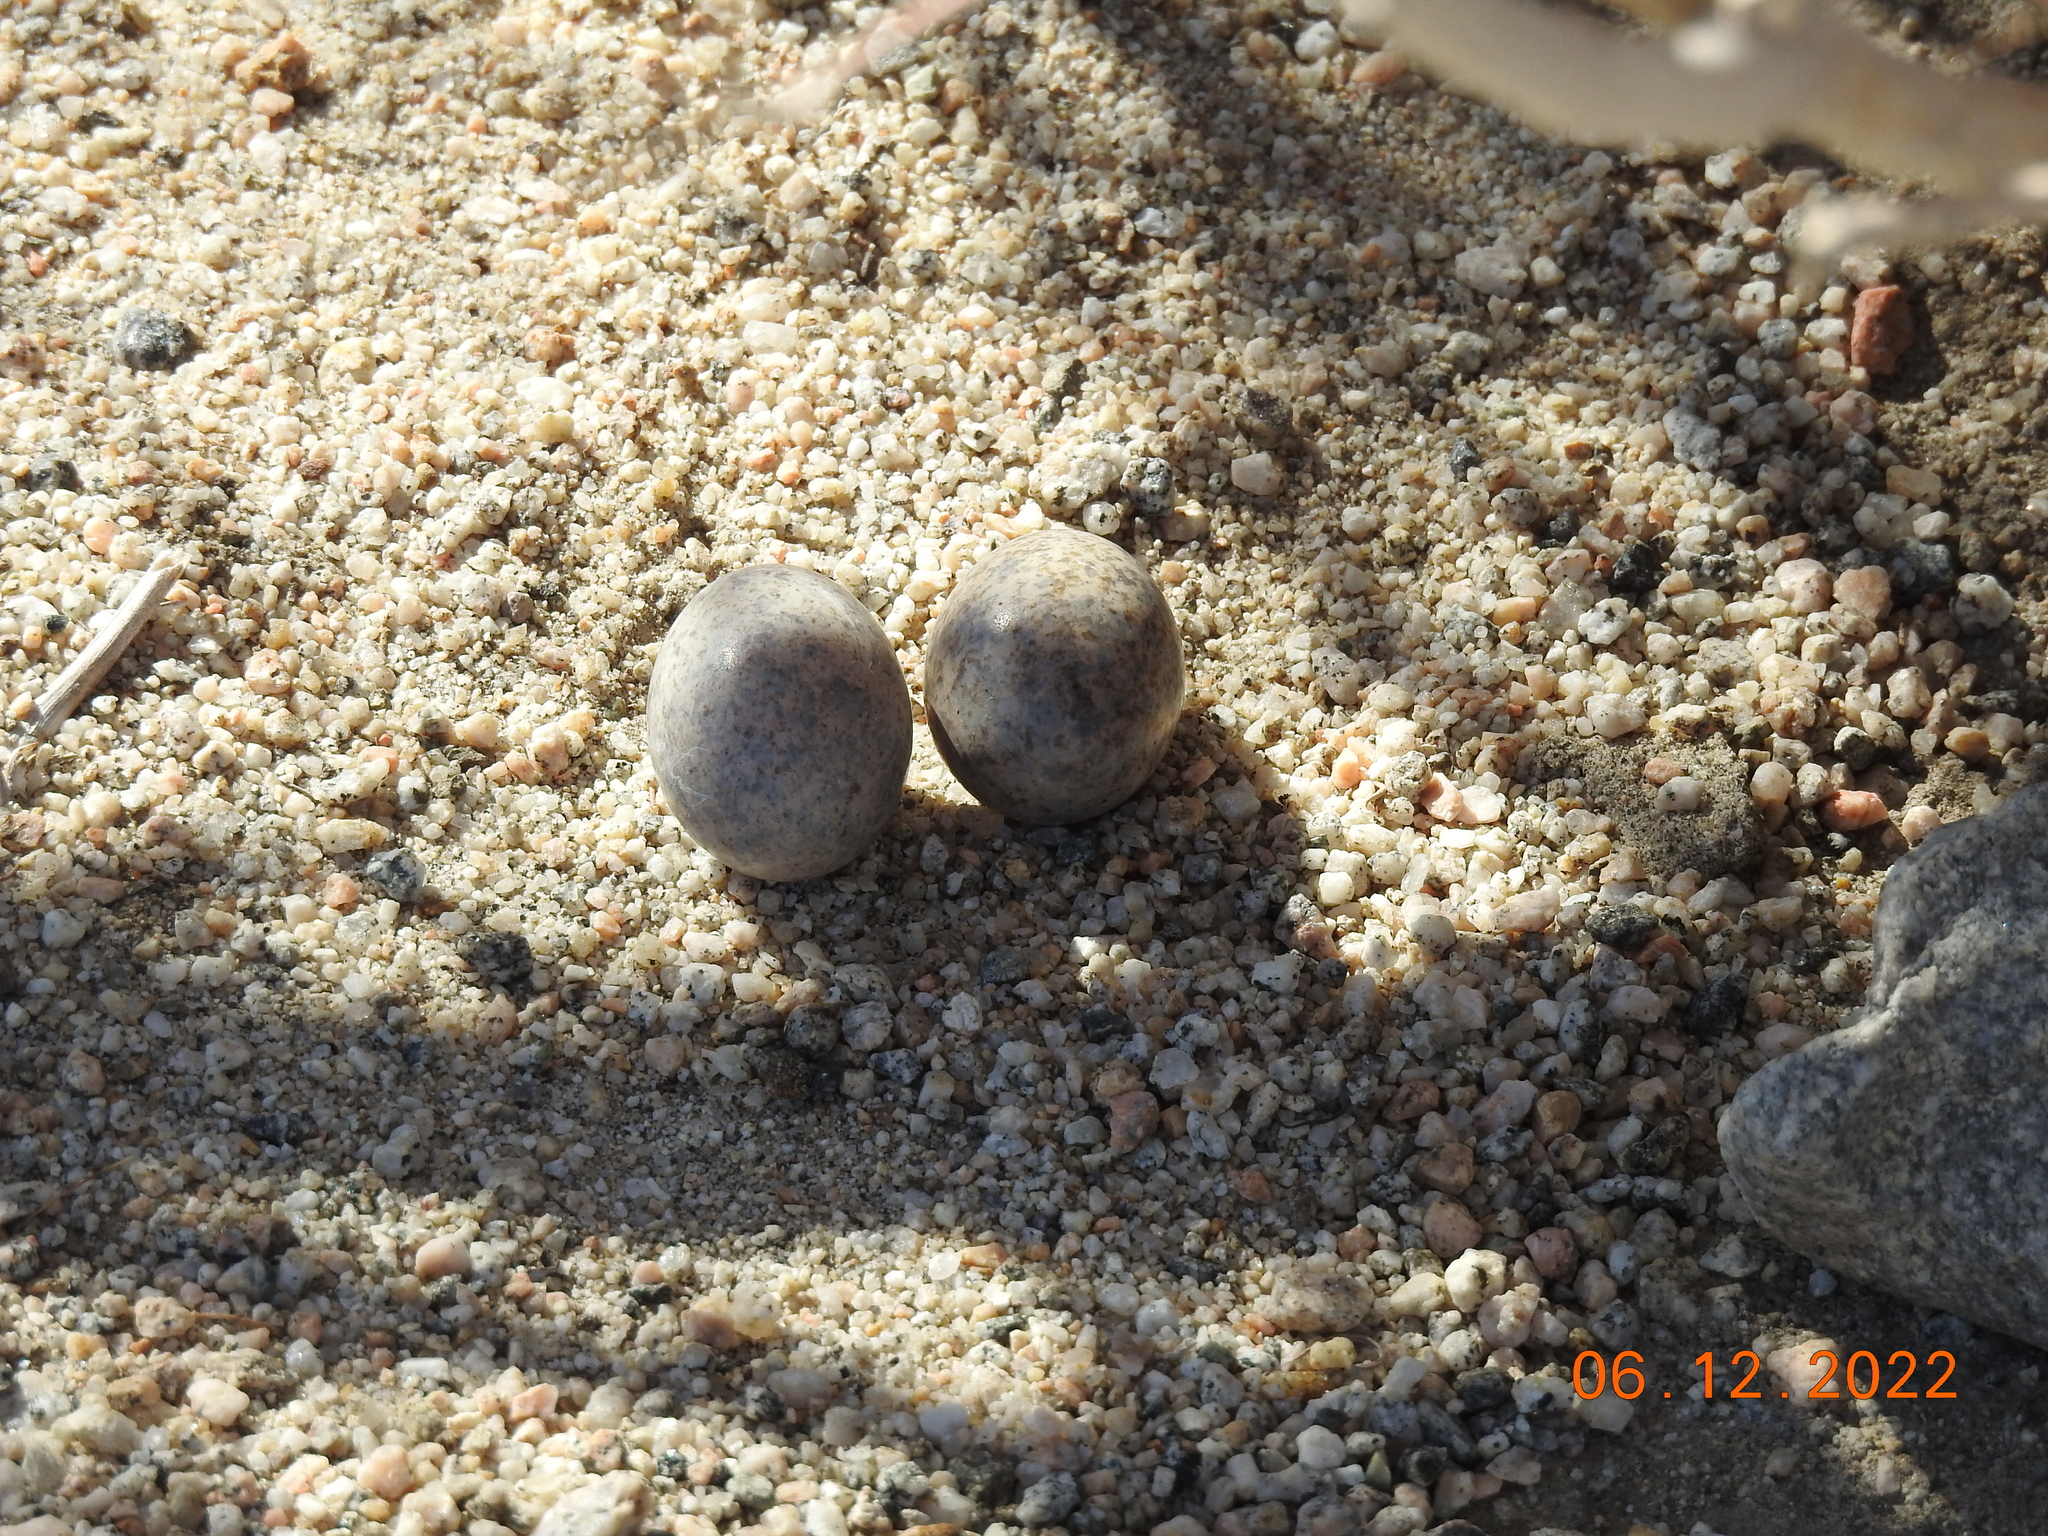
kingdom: Animalia
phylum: Chordata
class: Aves
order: Caprimulgiformes
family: Caprimulgidae
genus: Chordeiles
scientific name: Chordeiles acutipennis
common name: Lesser nighthawk
